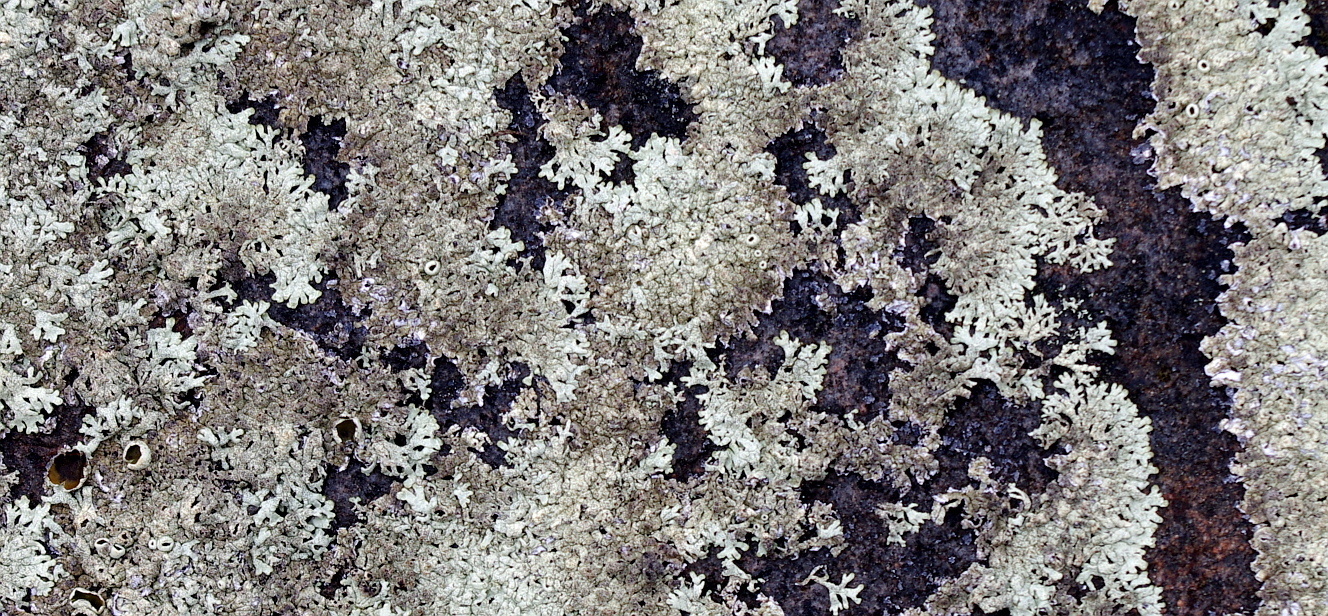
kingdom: Fungi
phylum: Ascomycota
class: Lecanoromycetes
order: Lecanorales
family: Parmeliaceae
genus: Arctoparmelia
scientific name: Arctoparmelia centrifuga
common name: Concentric ring lichen
